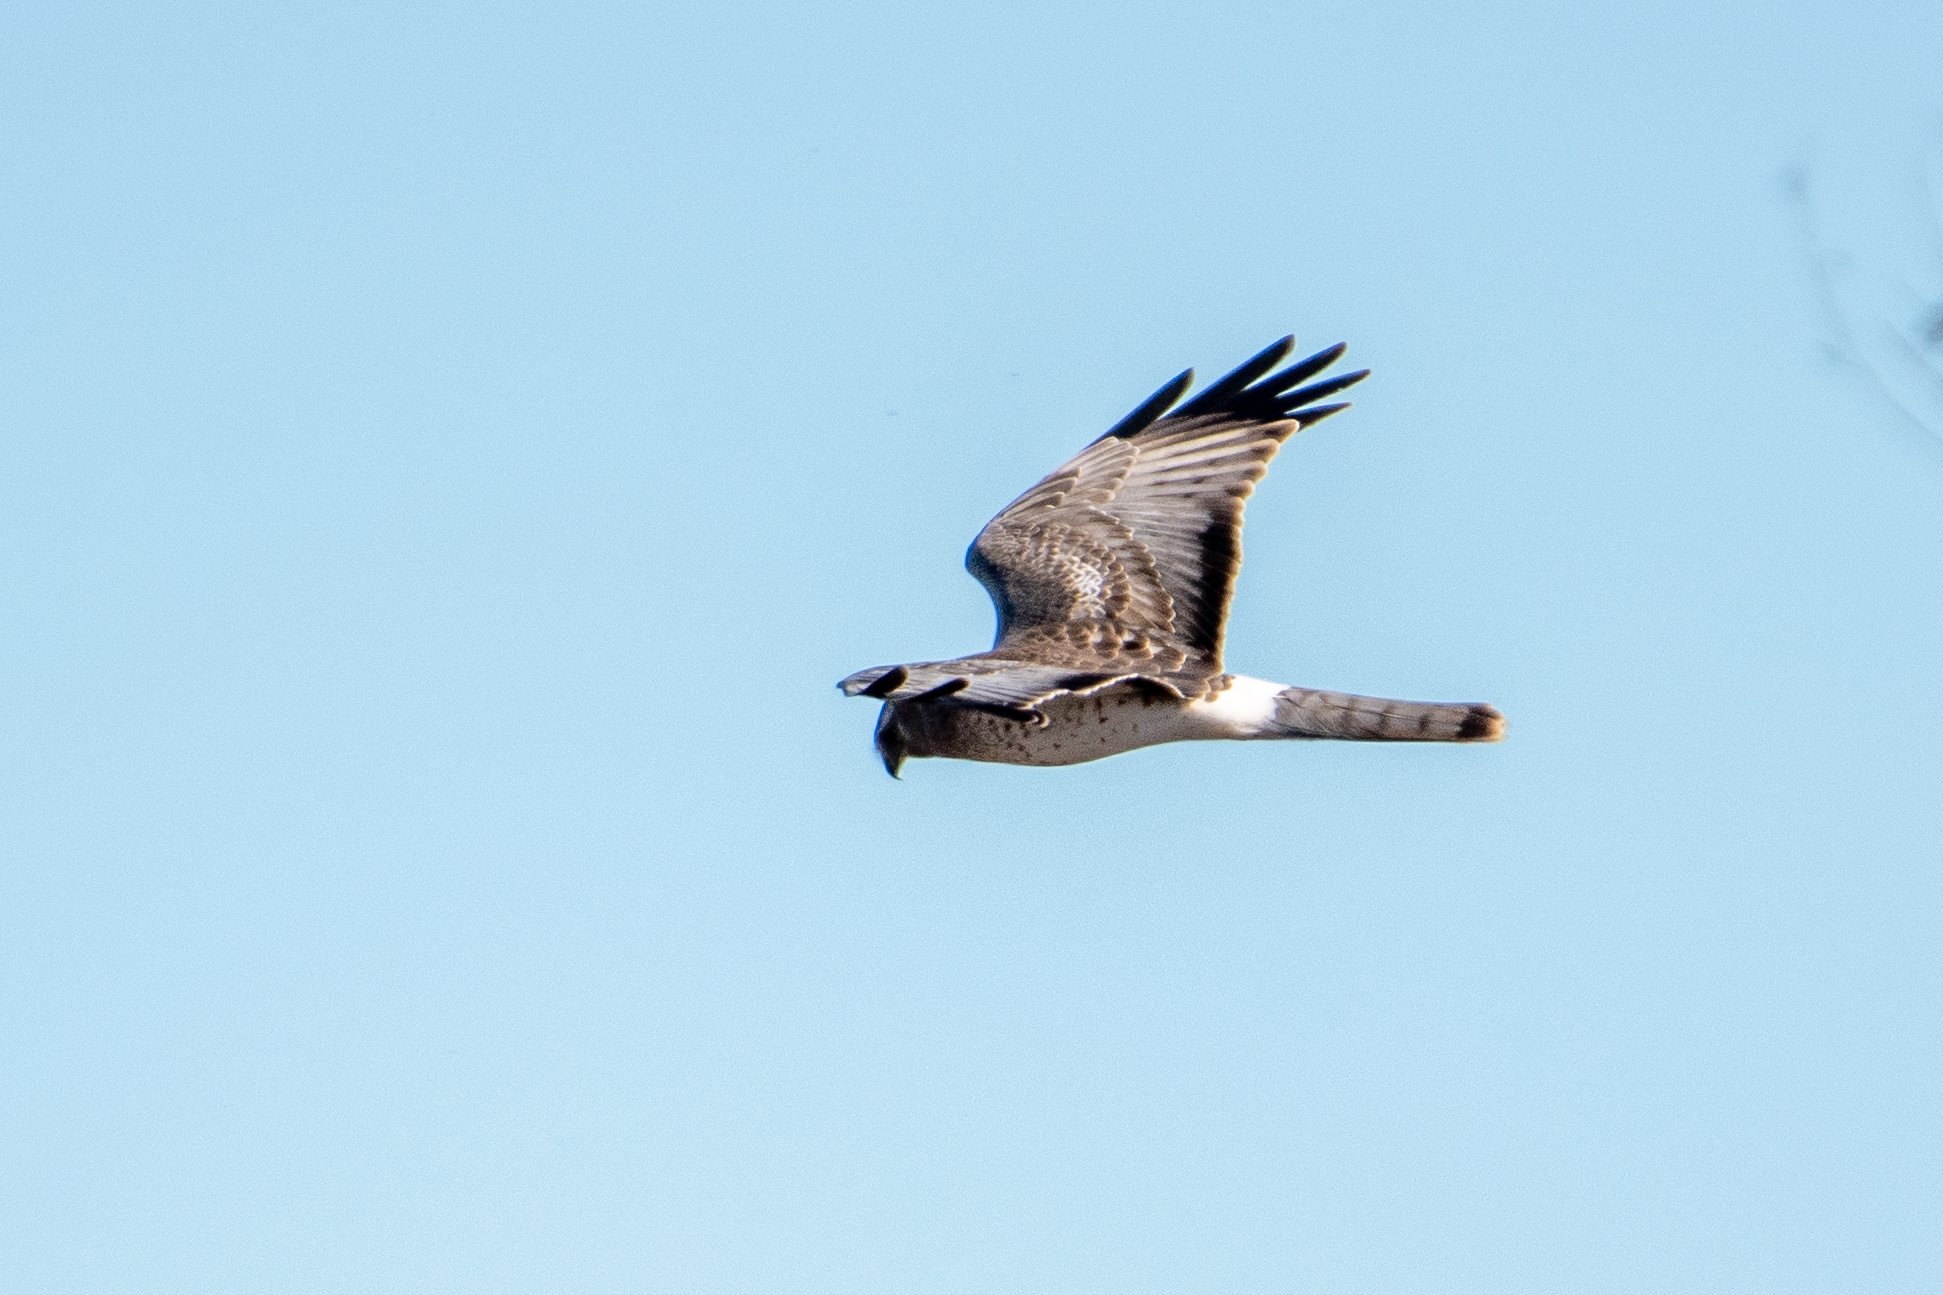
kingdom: Animalia
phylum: Chordata
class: Aves
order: Accipitriformes
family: Accipitridae
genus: Circus
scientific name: Circus cyaneus
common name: Hen harrier
